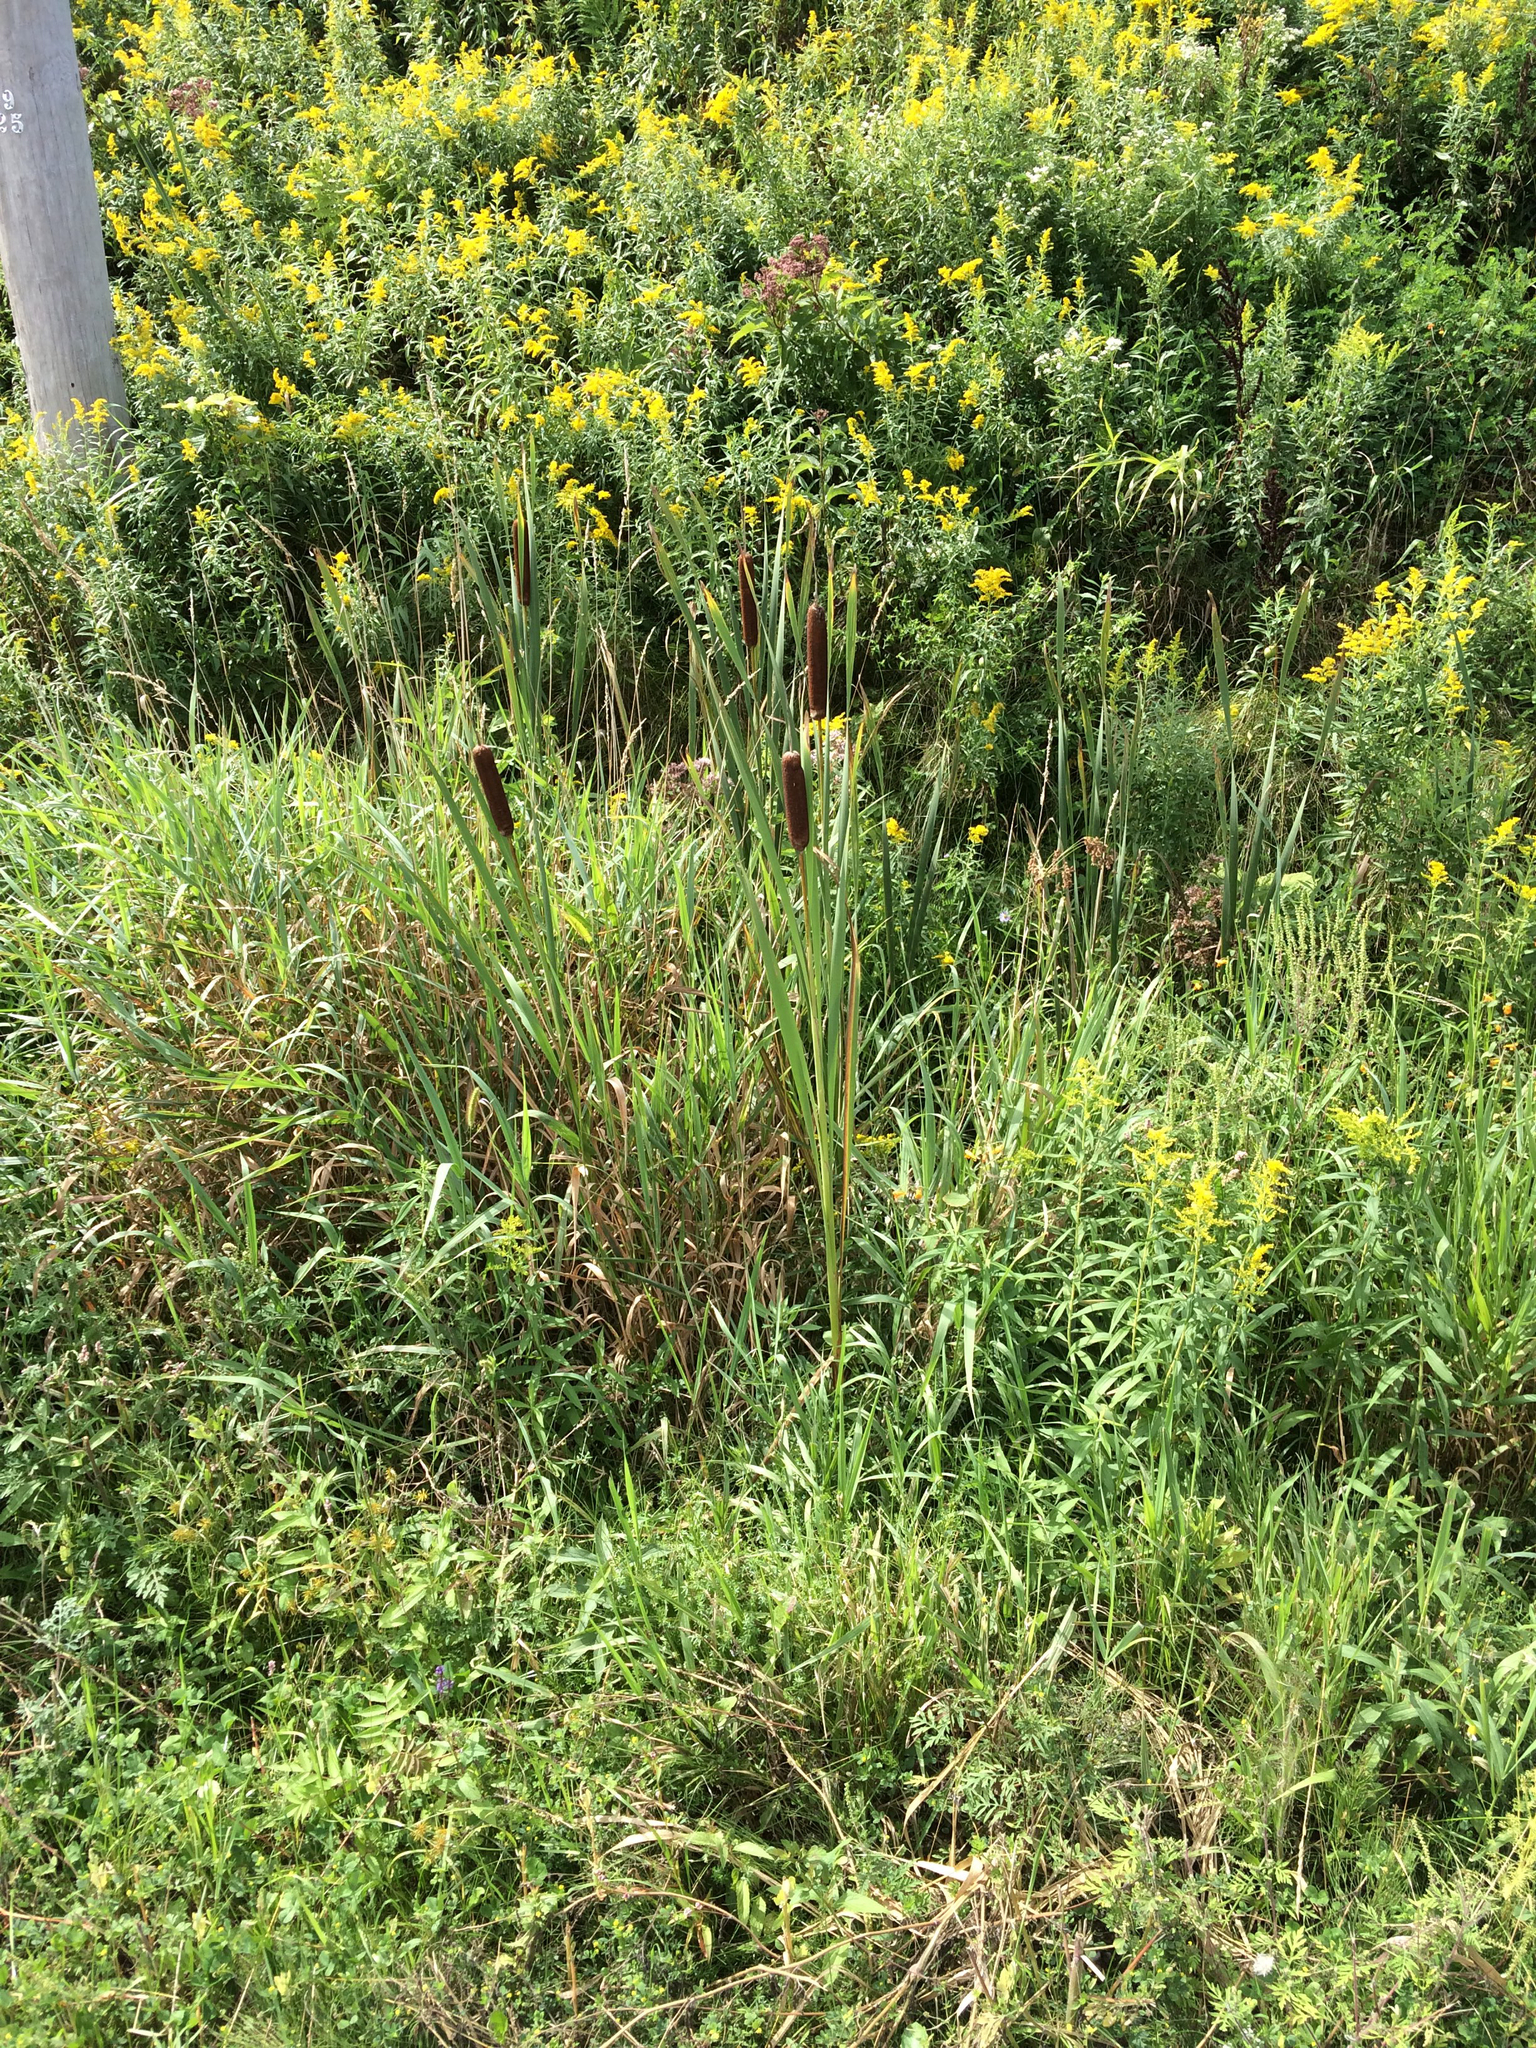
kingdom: Plantae
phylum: Tracheophyta
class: Liliopsida
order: Poales
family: Typhaceae
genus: Typha
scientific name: Typha latifolia
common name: Broadleaf cattail
